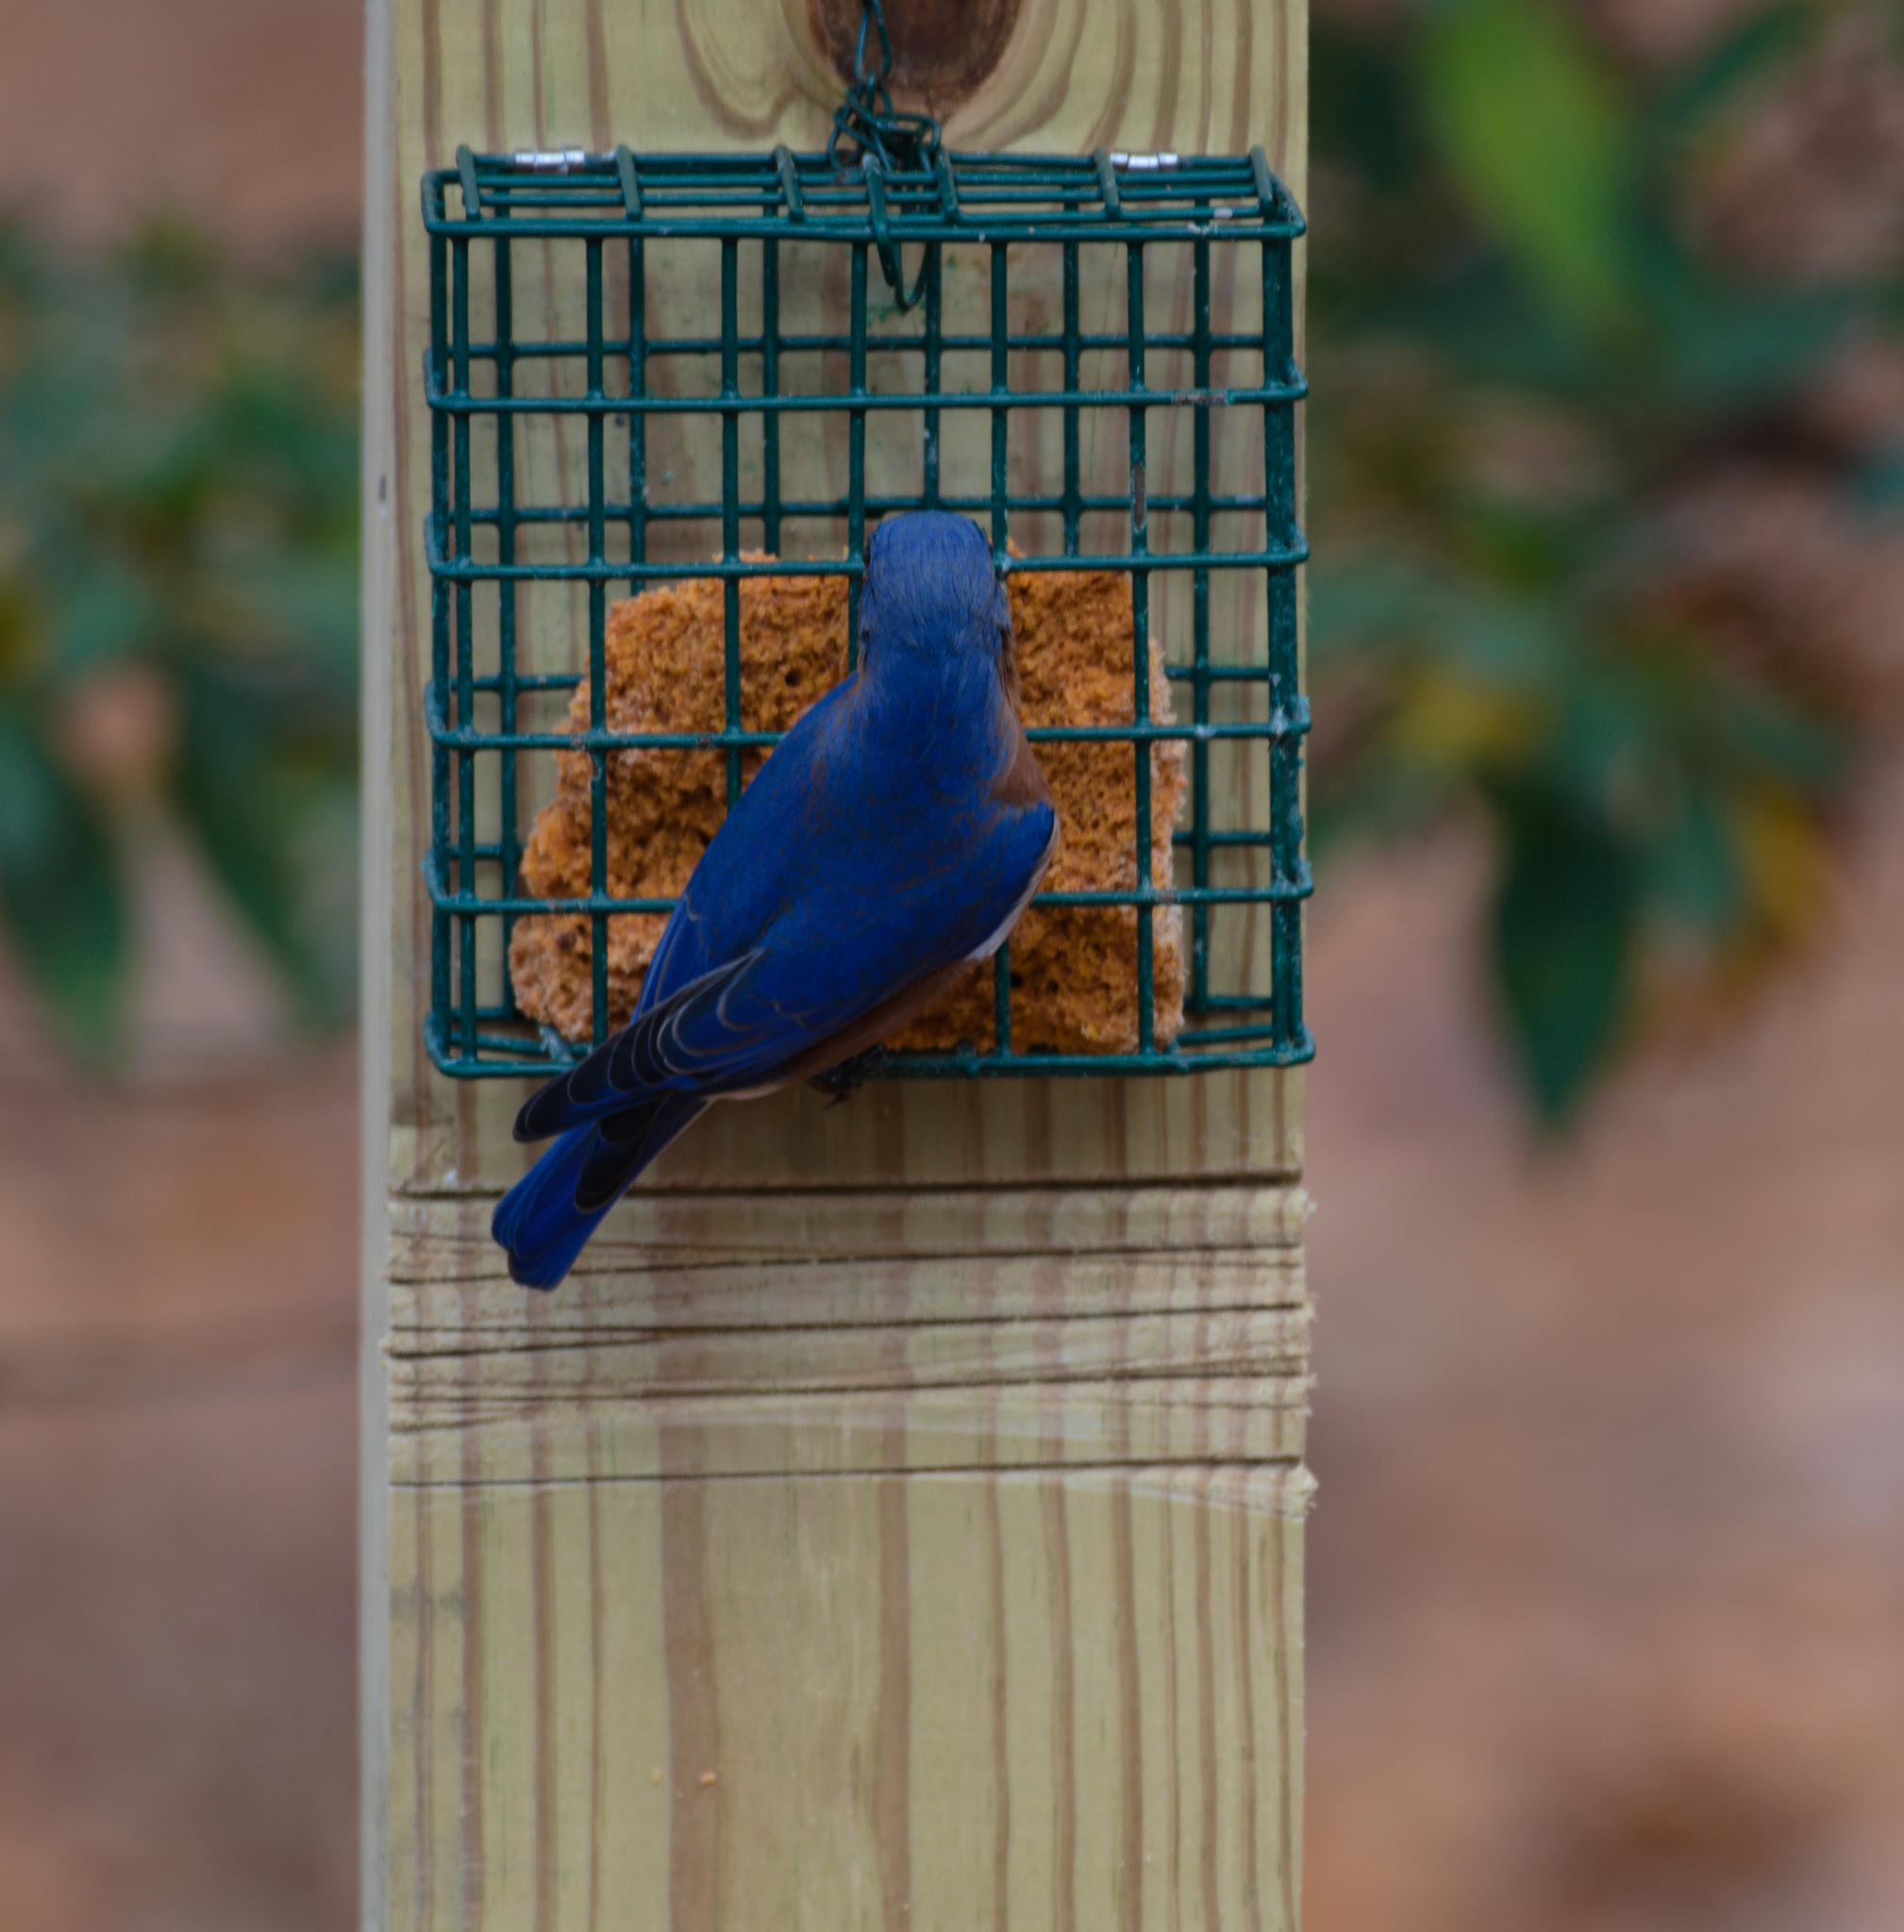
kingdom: Animalia
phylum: Chordata
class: Aves
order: Passeriformes
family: Turdidae
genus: Sialia
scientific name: Sialia sialis
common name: Eastern bluebird
